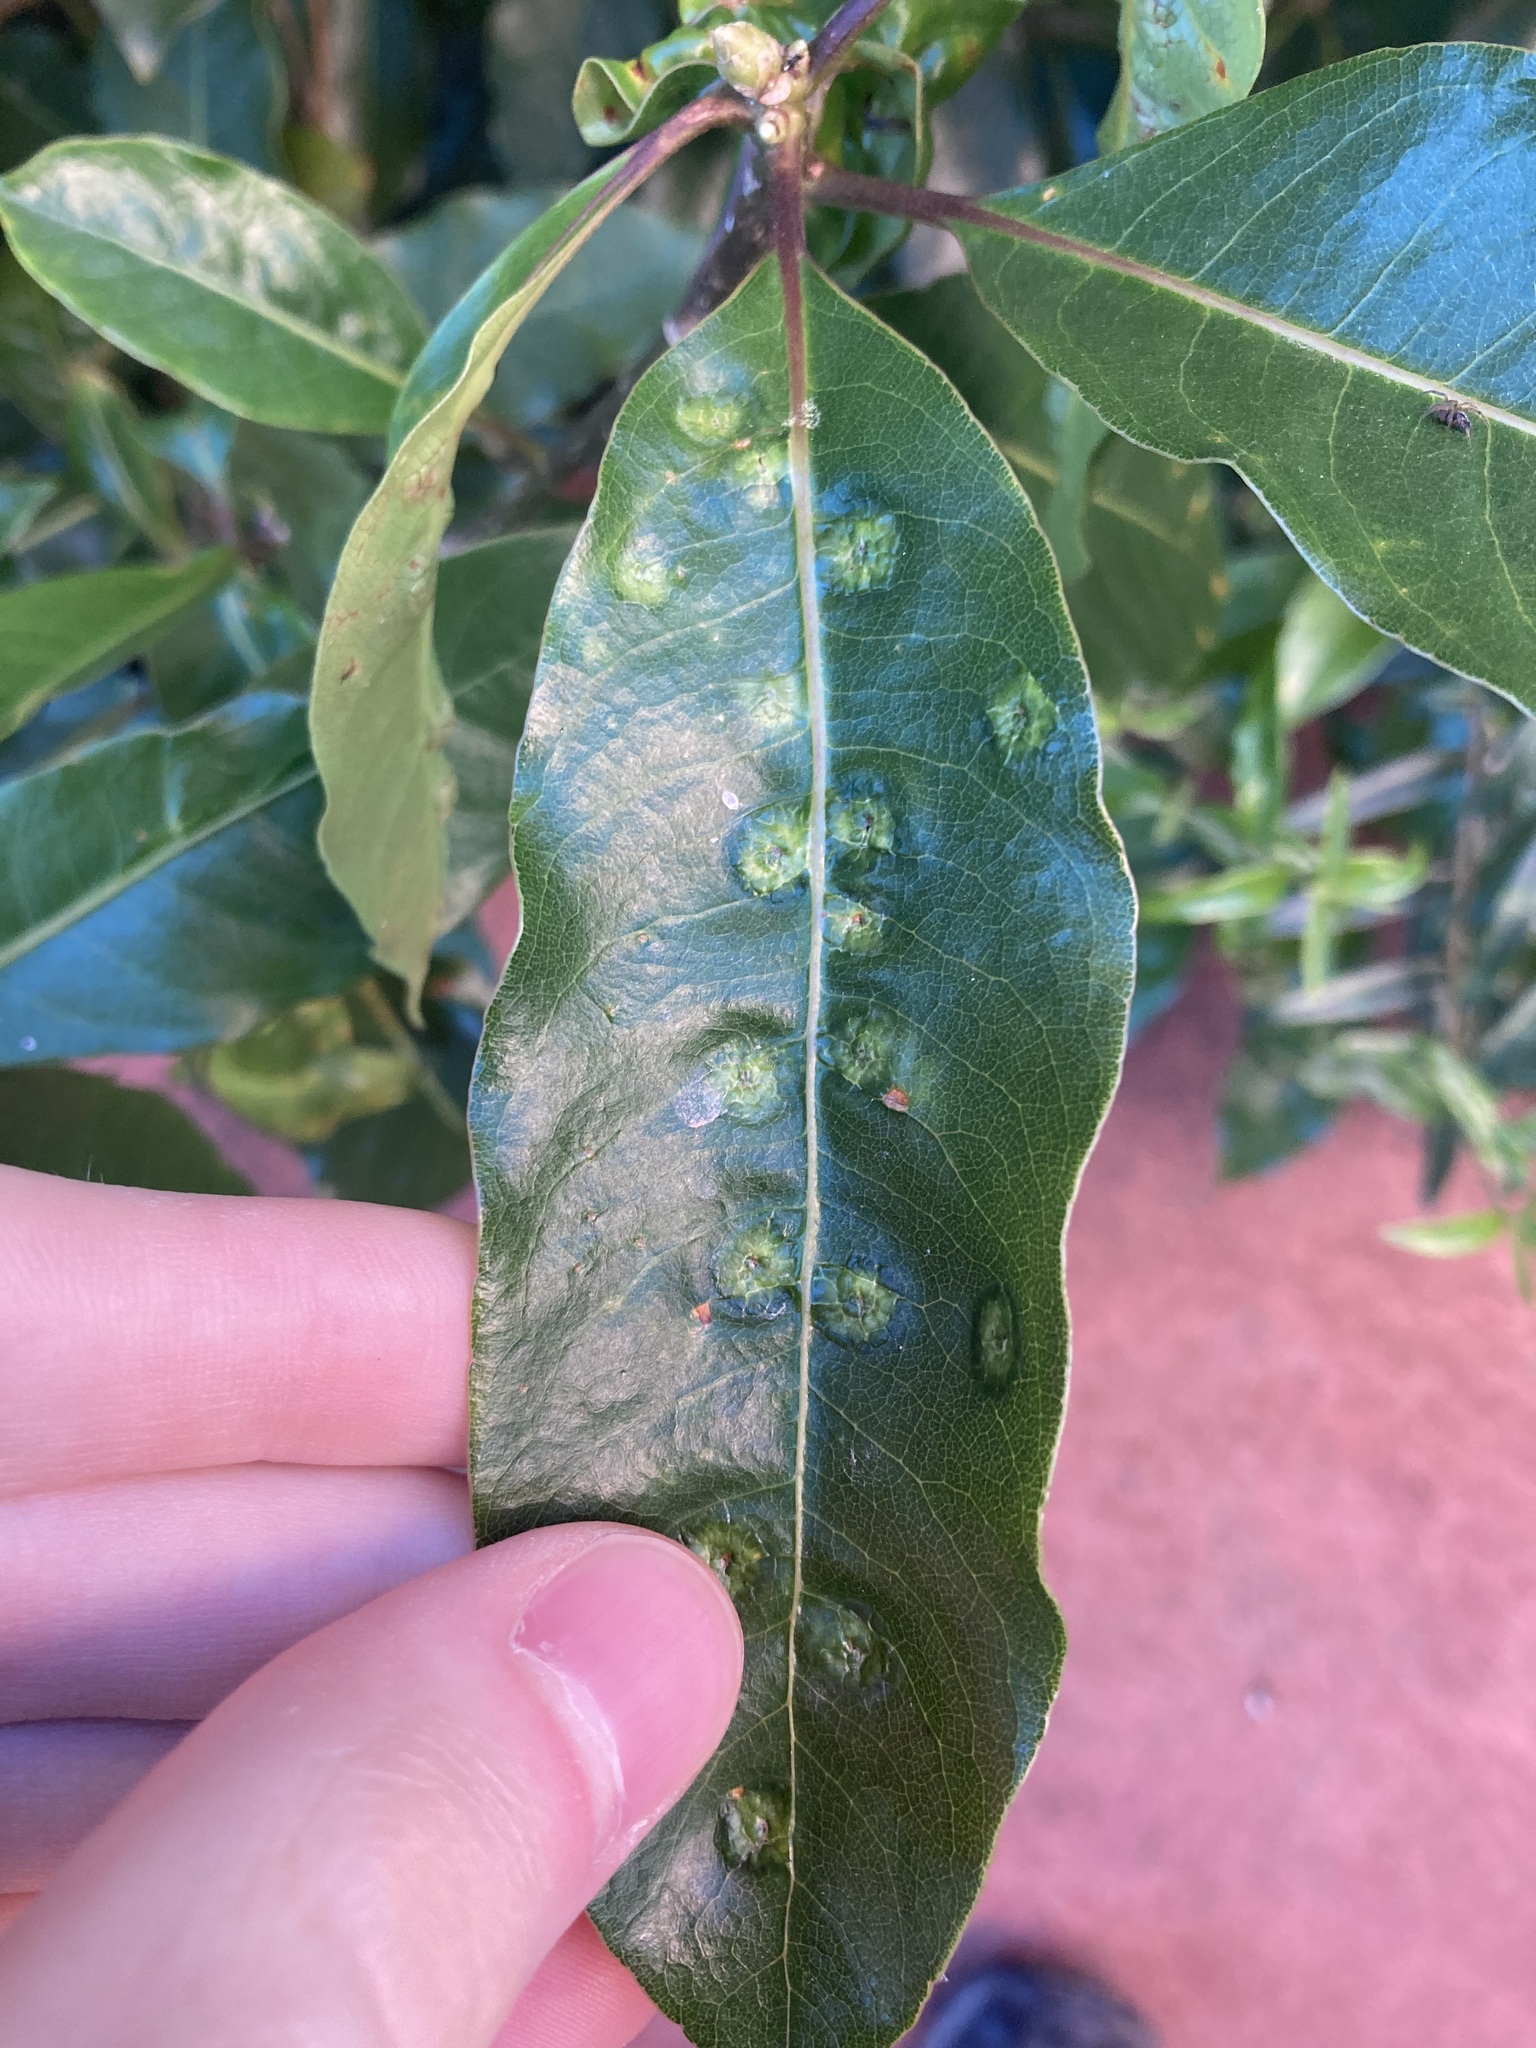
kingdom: Animalia
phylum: Arthropoda
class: Insecta
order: Diptera
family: Agromyzidae
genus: Phytoliriomyza
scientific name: Phytoliriomyza pittosporophylli
